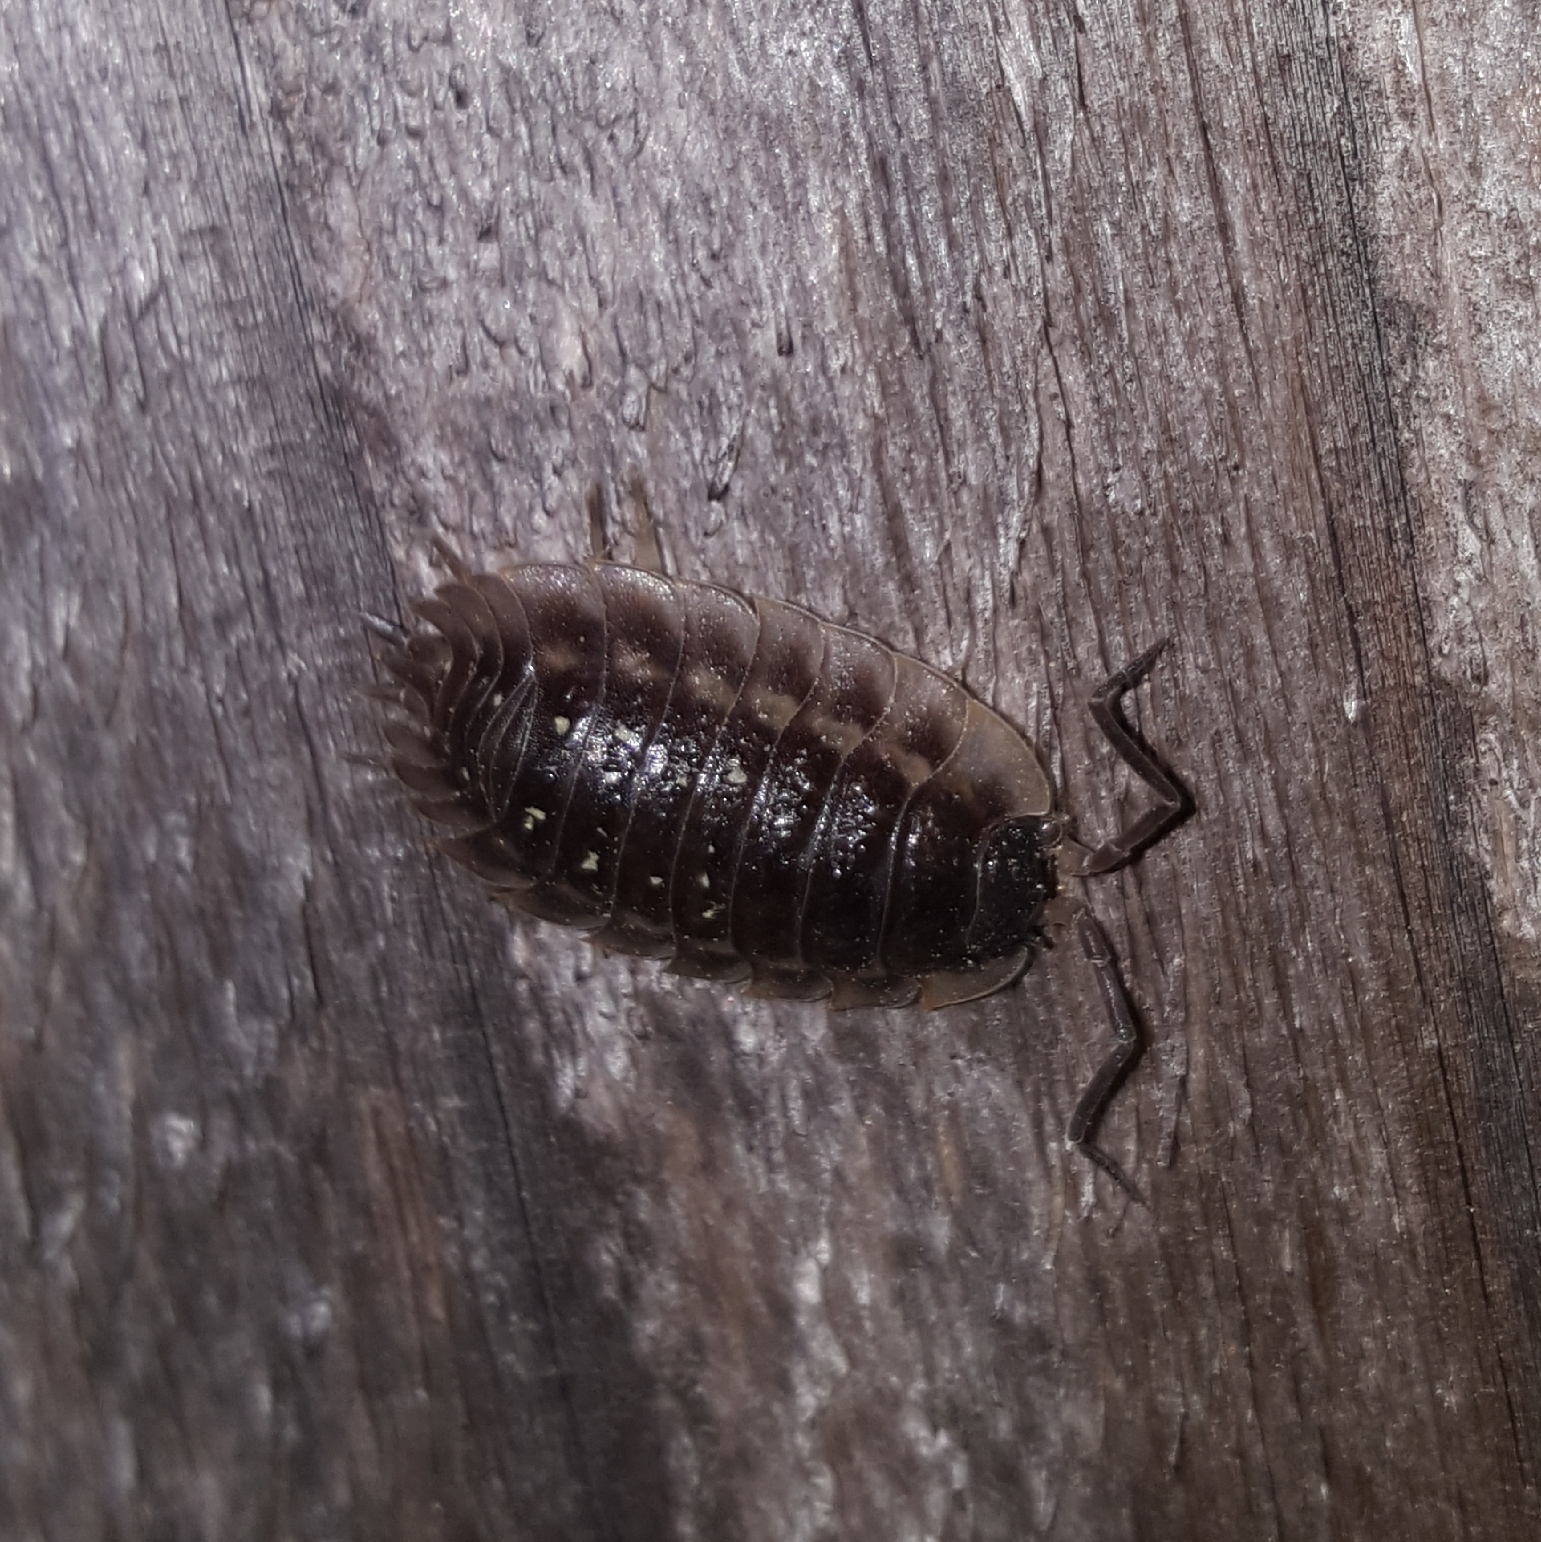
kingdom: Animalia
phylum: Arthropoda
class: Malacostraca
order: Isopoda
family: Oniscidae
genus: Oniscus
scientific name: Oniscus asellus
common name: Common shiny woodlouse
